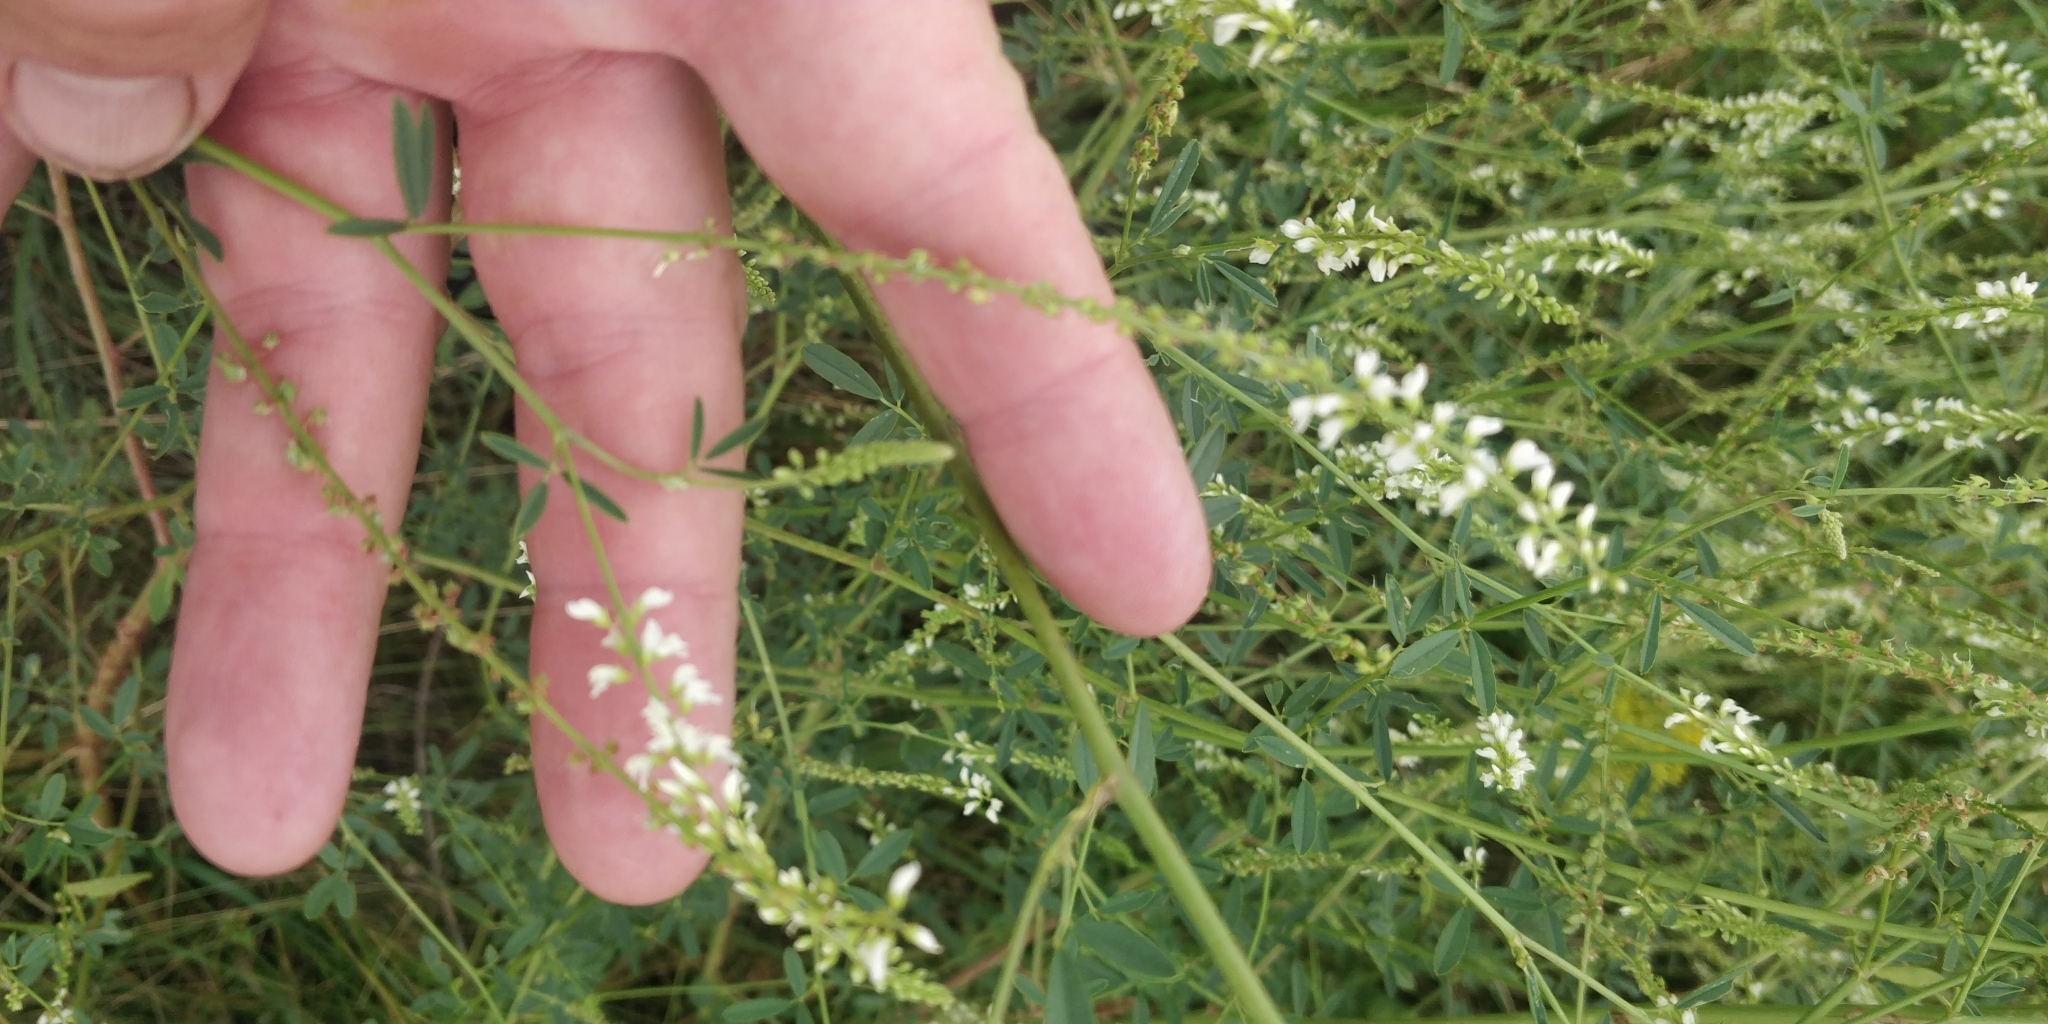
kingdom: Plantae
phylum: Tracheophyta
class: Magnoliopsida
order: Fabales
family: Fabaceae
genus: Melilotus
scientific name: Melilotus albus
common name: White melilot
